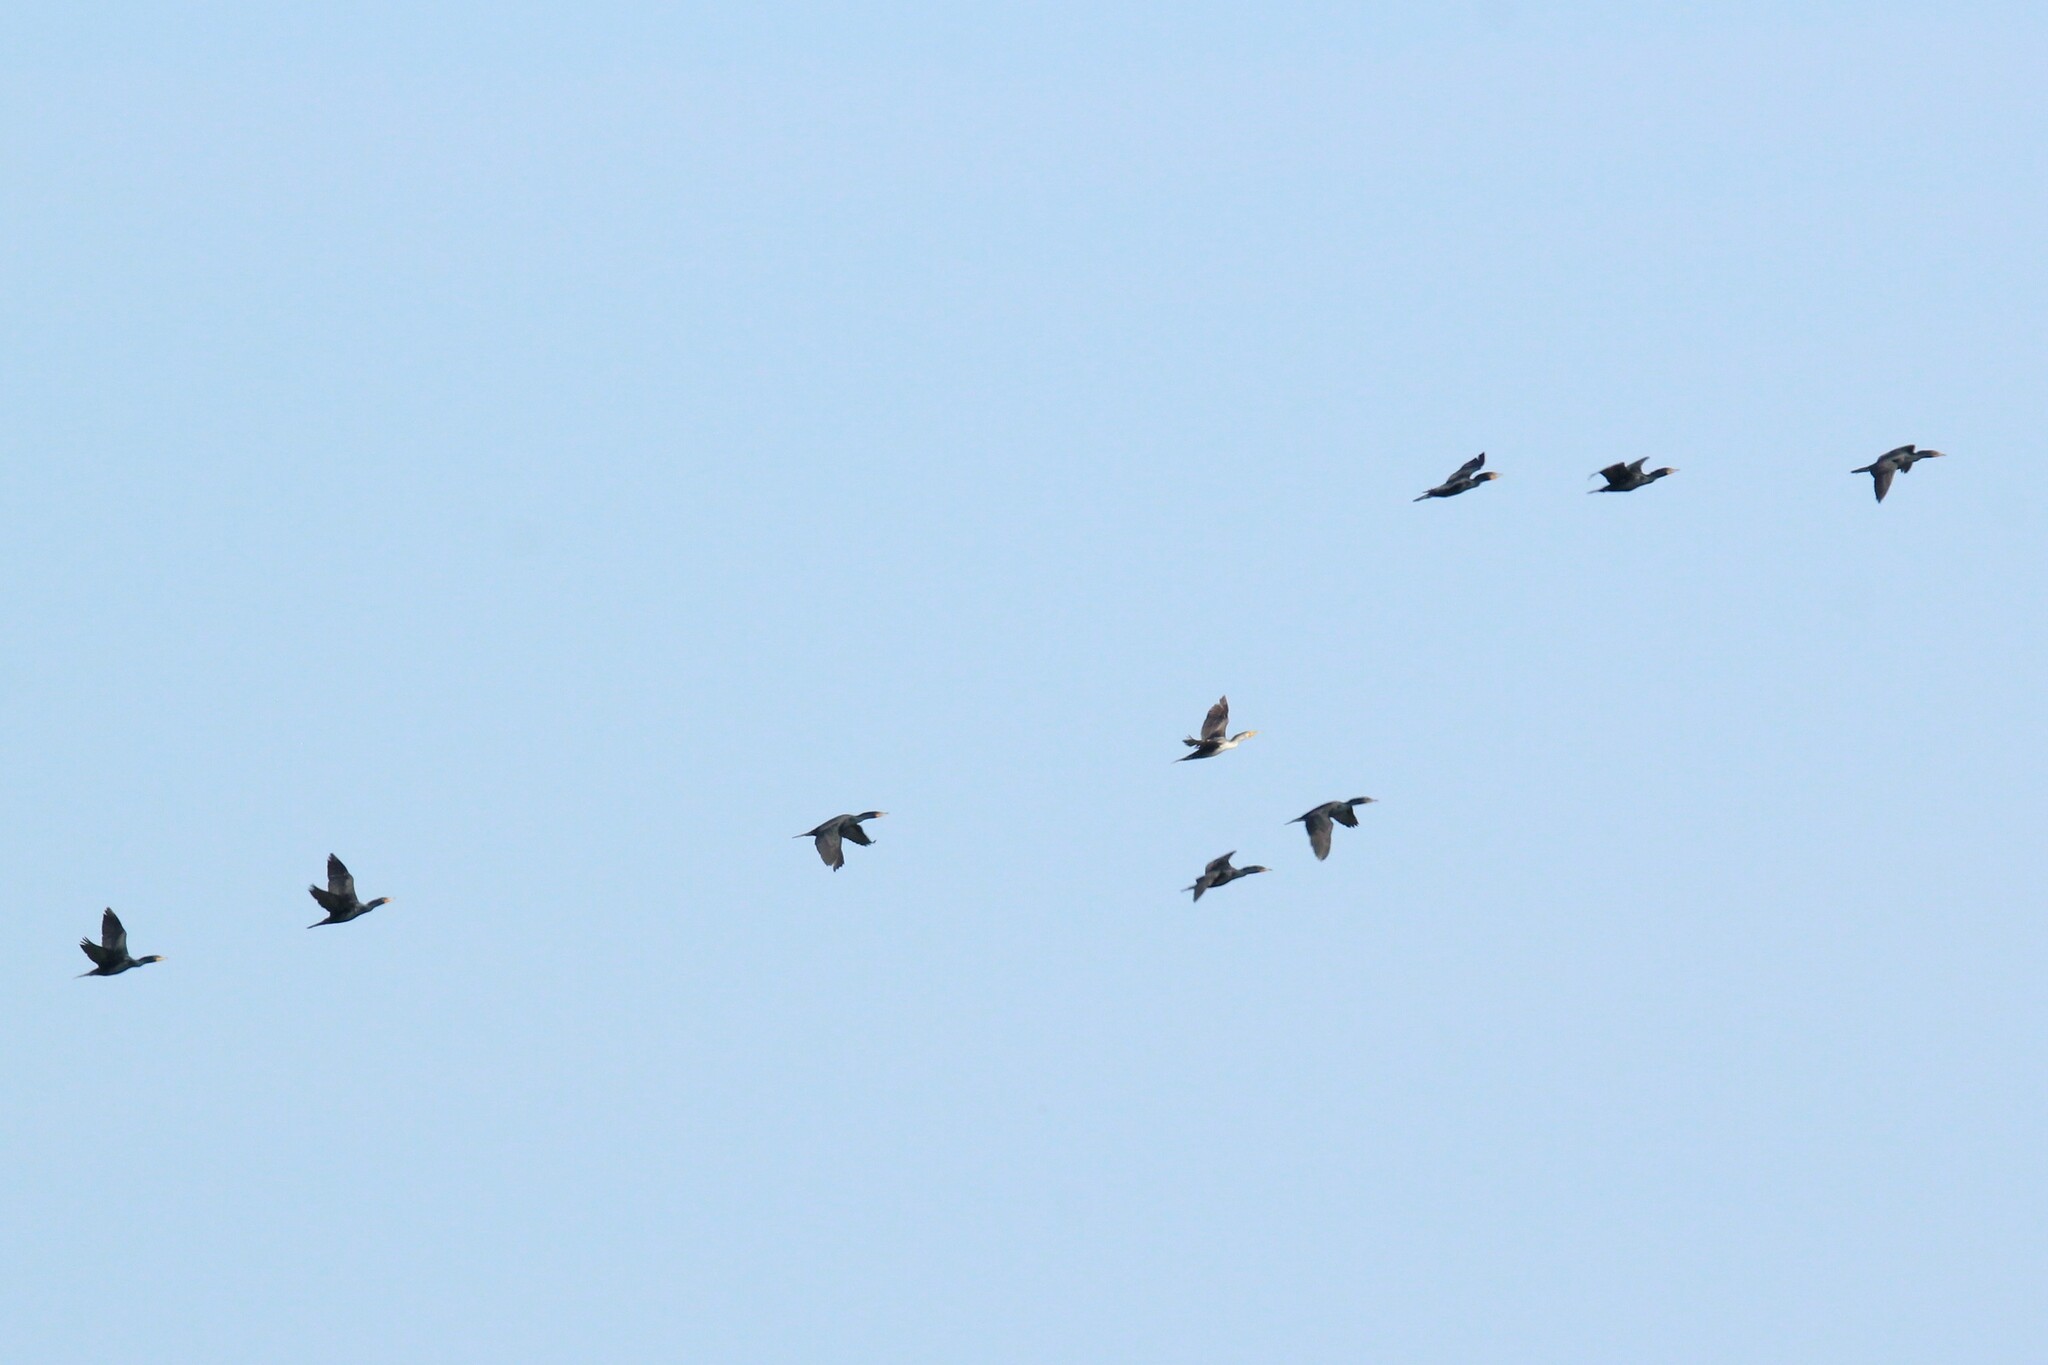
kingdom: Animalia
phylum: Chordata
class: Aves
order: Suliformes
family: Phalacrocoracidae
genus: Phalacrocorax
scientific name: Phalacrocorax auritus
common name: Double-crested cormorant
